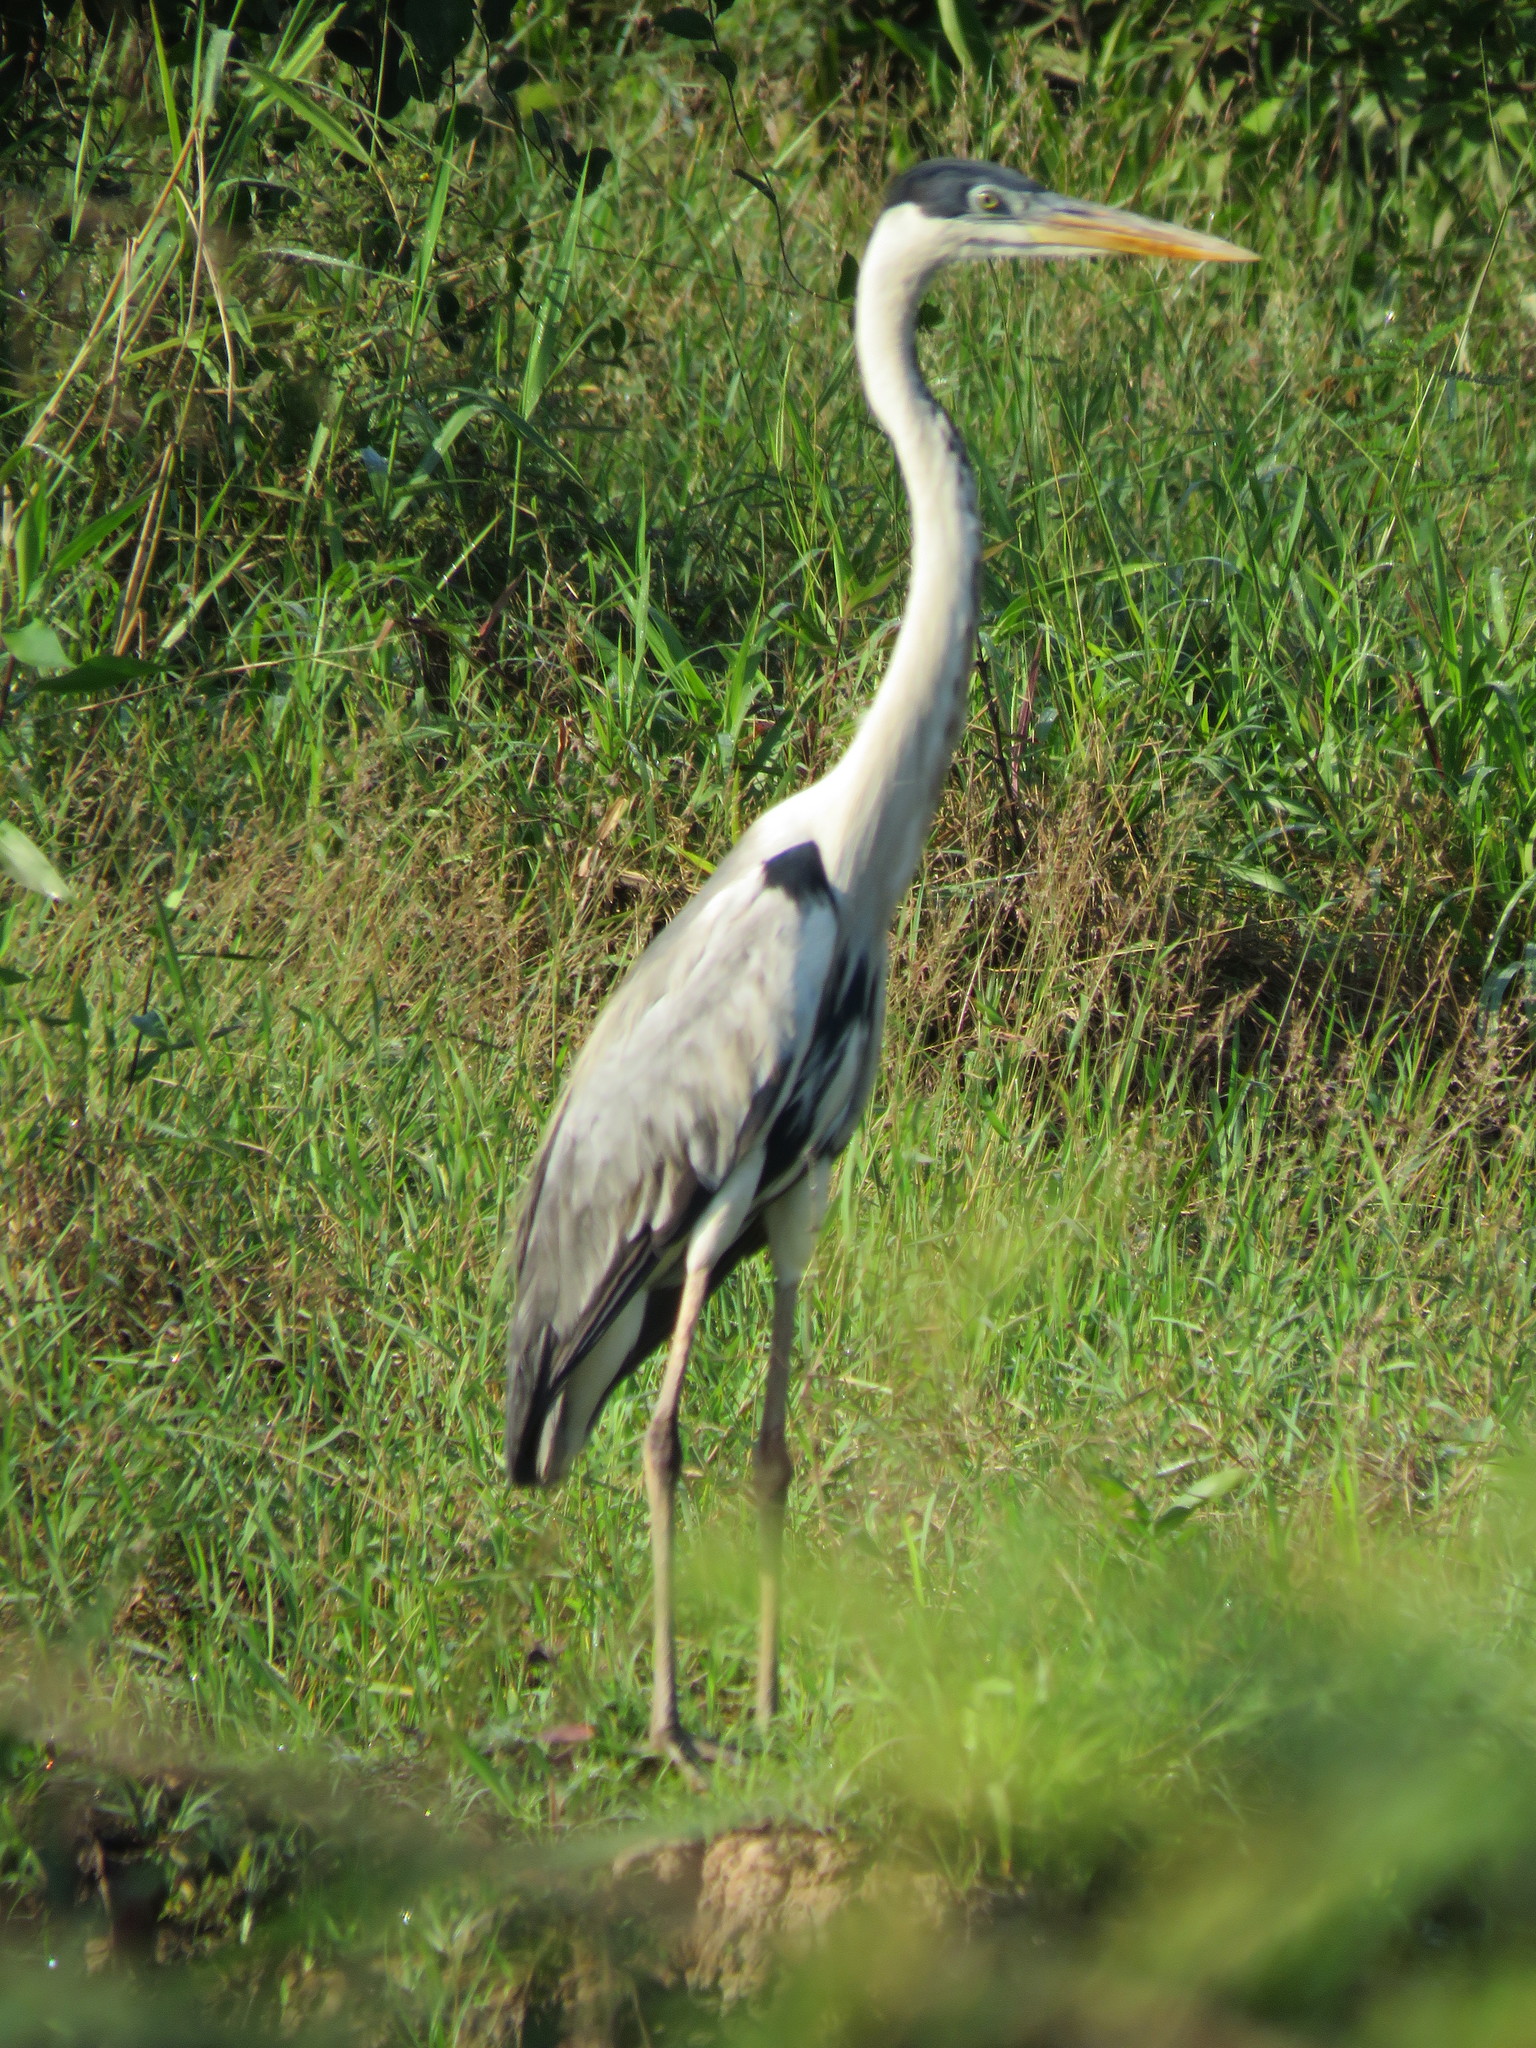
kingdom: Animalia
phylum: Chordata
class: Aves
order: Pelecaniformes
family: Ardeidae
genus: Ardea
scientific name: Ardea cocoi
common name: Cocoi heron
